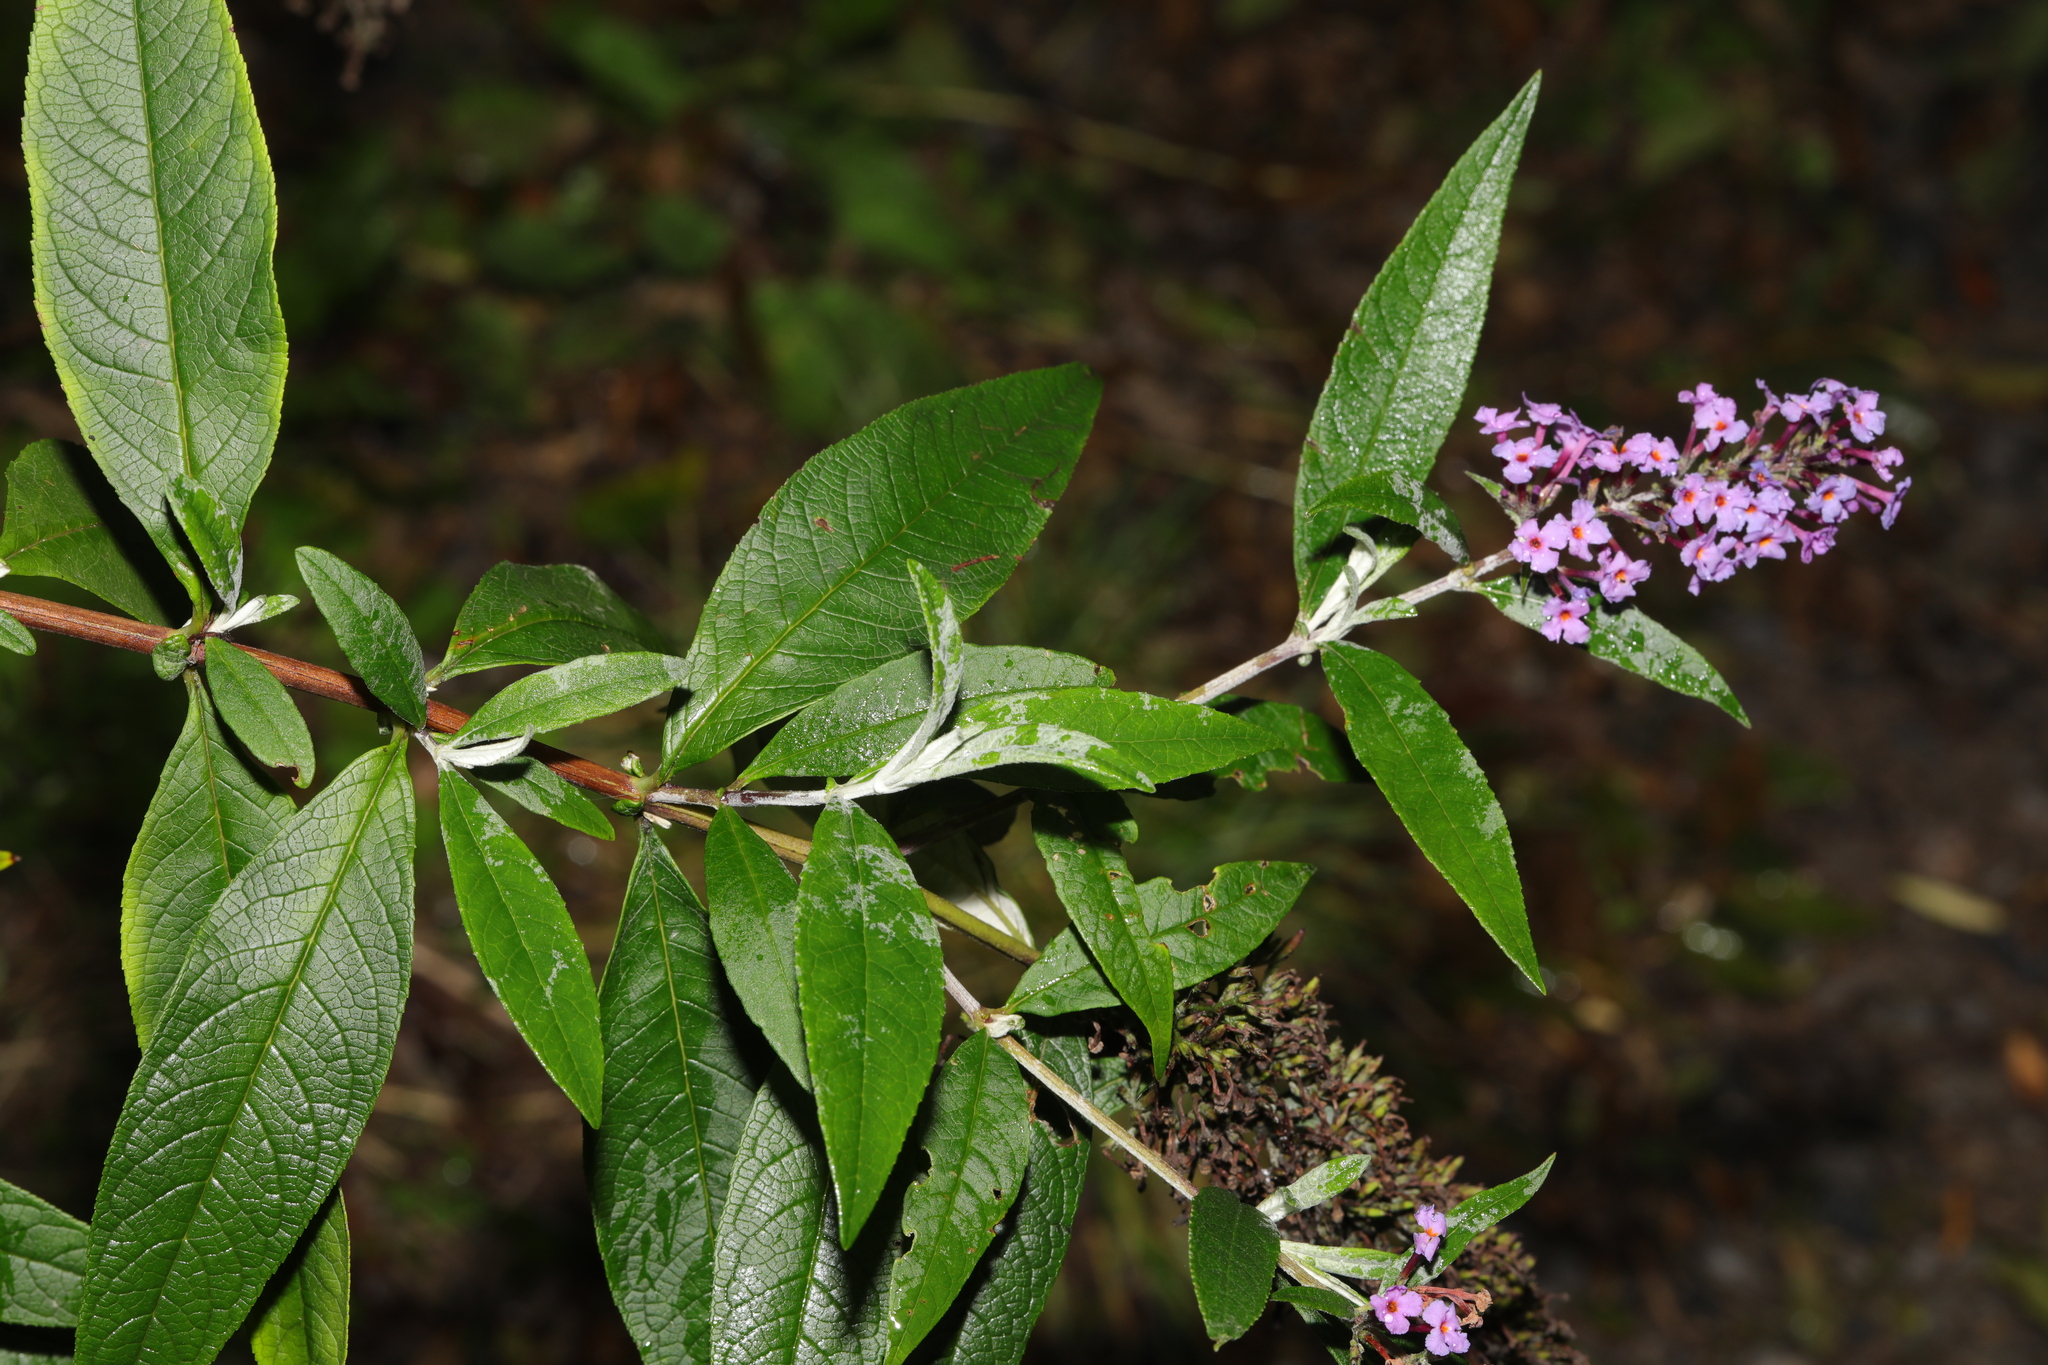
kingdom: Plantae
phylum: Tracheophyta
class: Magnoliopsida
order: Lamiales
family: Scrophulariaceae
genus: Buddleja
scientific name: Buddleja davidii
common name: Butterfly-bush
